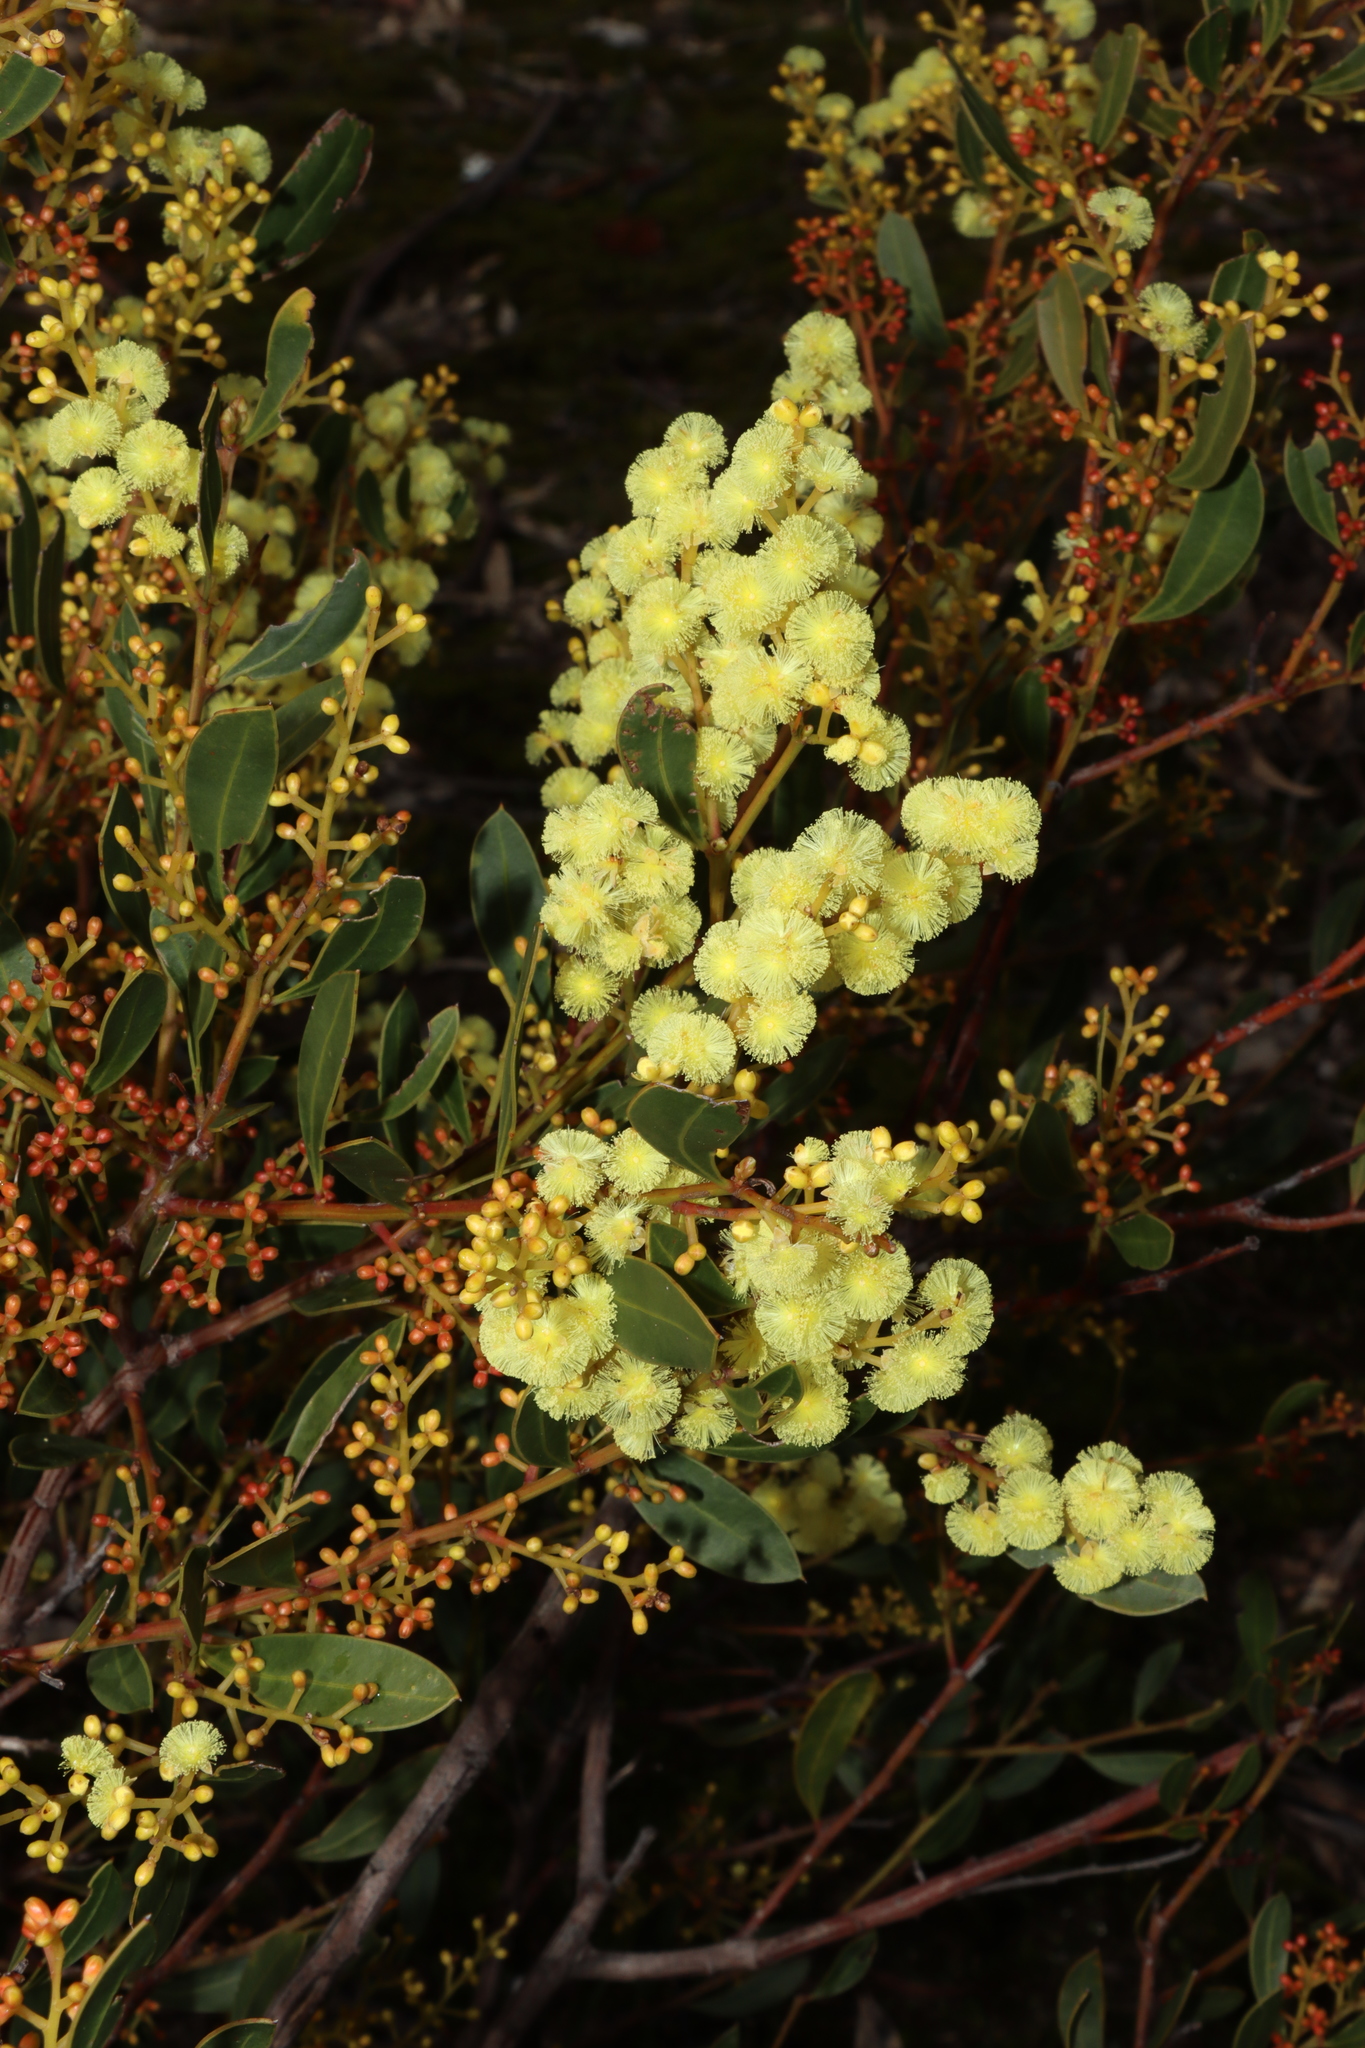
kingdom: Plantae
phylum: Tracheophyta
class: Magnoliopsida
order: Fabales
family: Fabaceae
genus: Acacia
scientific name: Acacia myrtifolia
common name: Myrtle wattle
